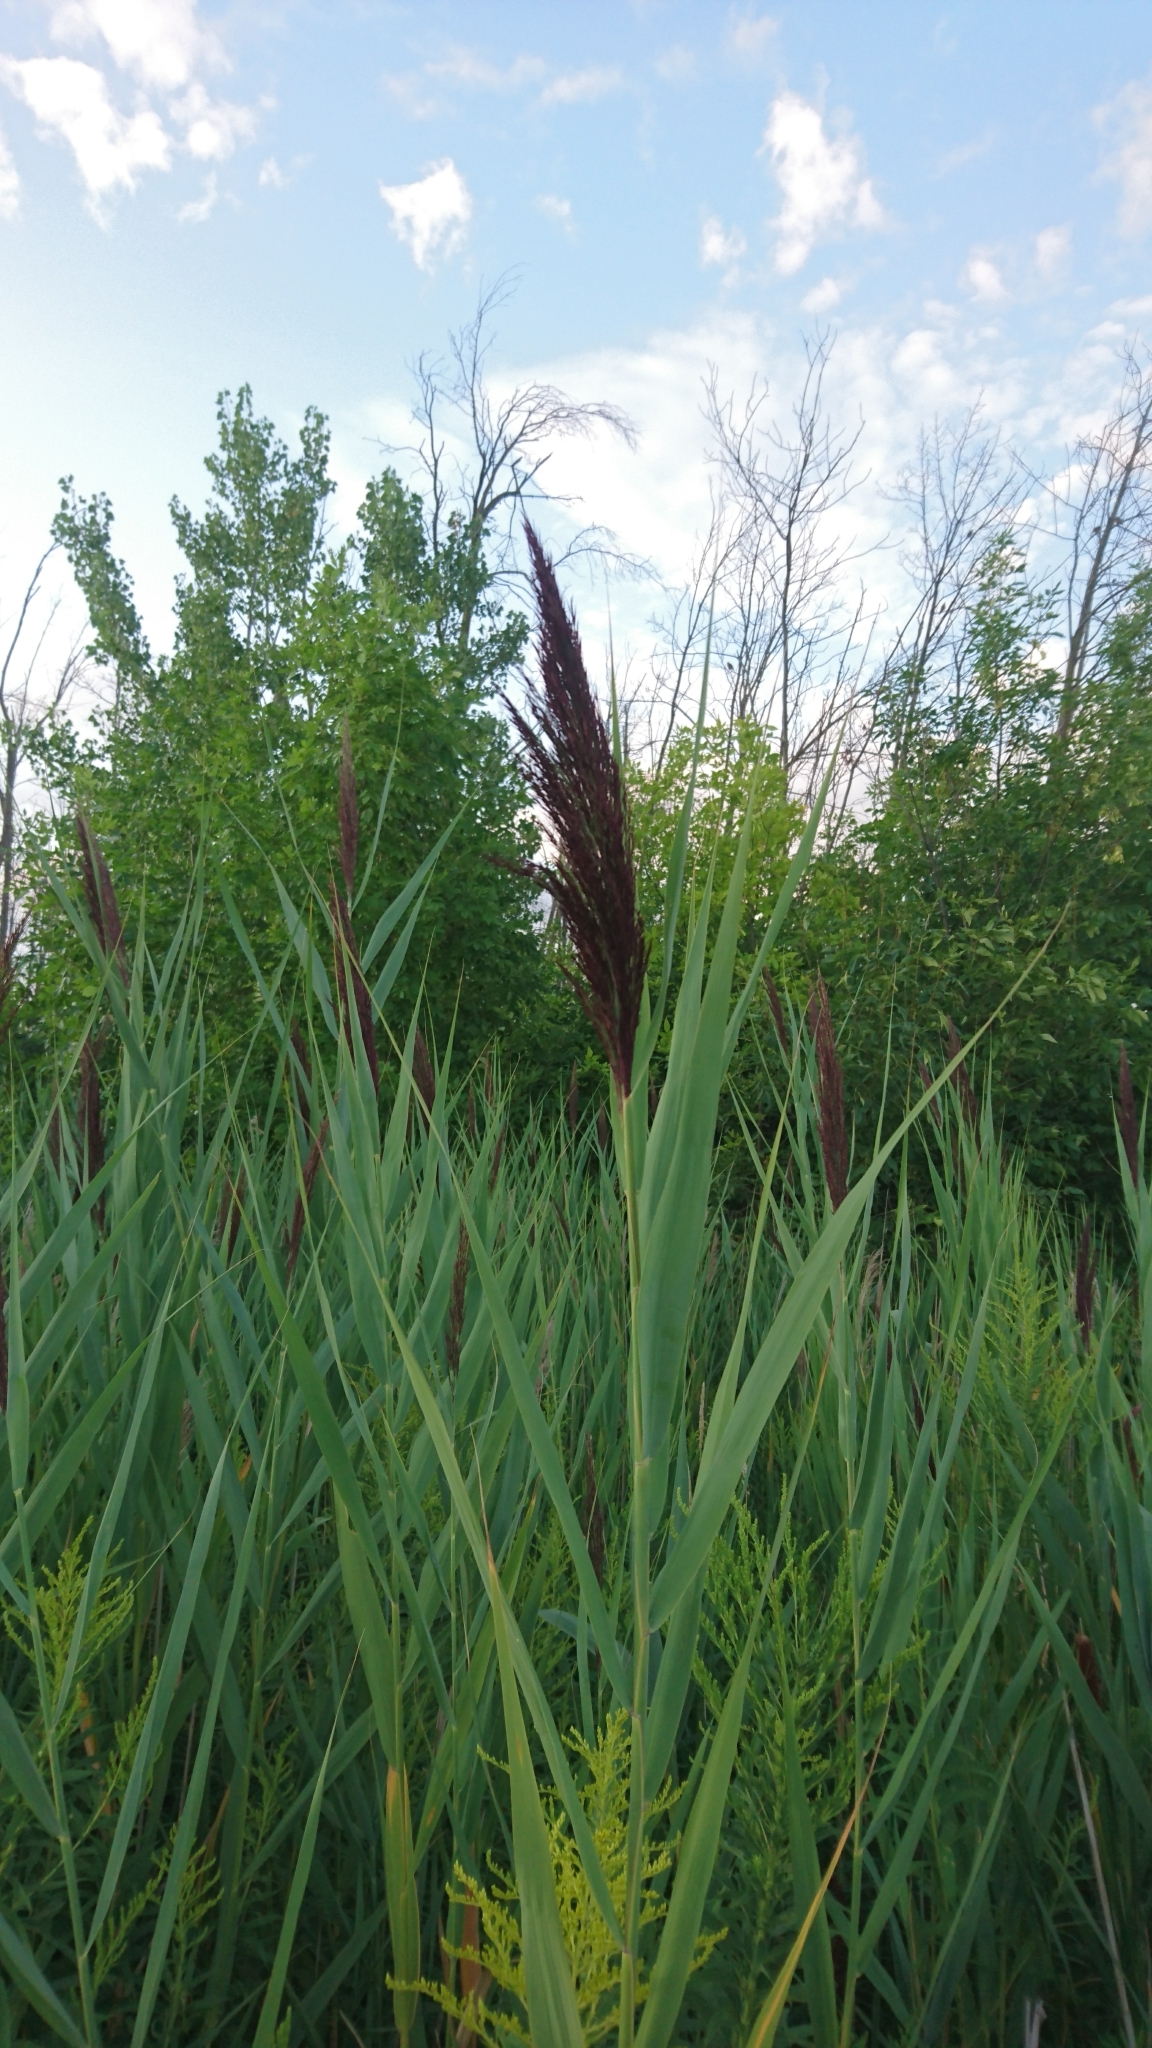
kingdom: Plantae
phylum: Tracheophyta
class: Liliopsida
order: Poales
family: Poaceae
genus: Phragmites
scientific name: Phragmites australis
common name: Common reed
